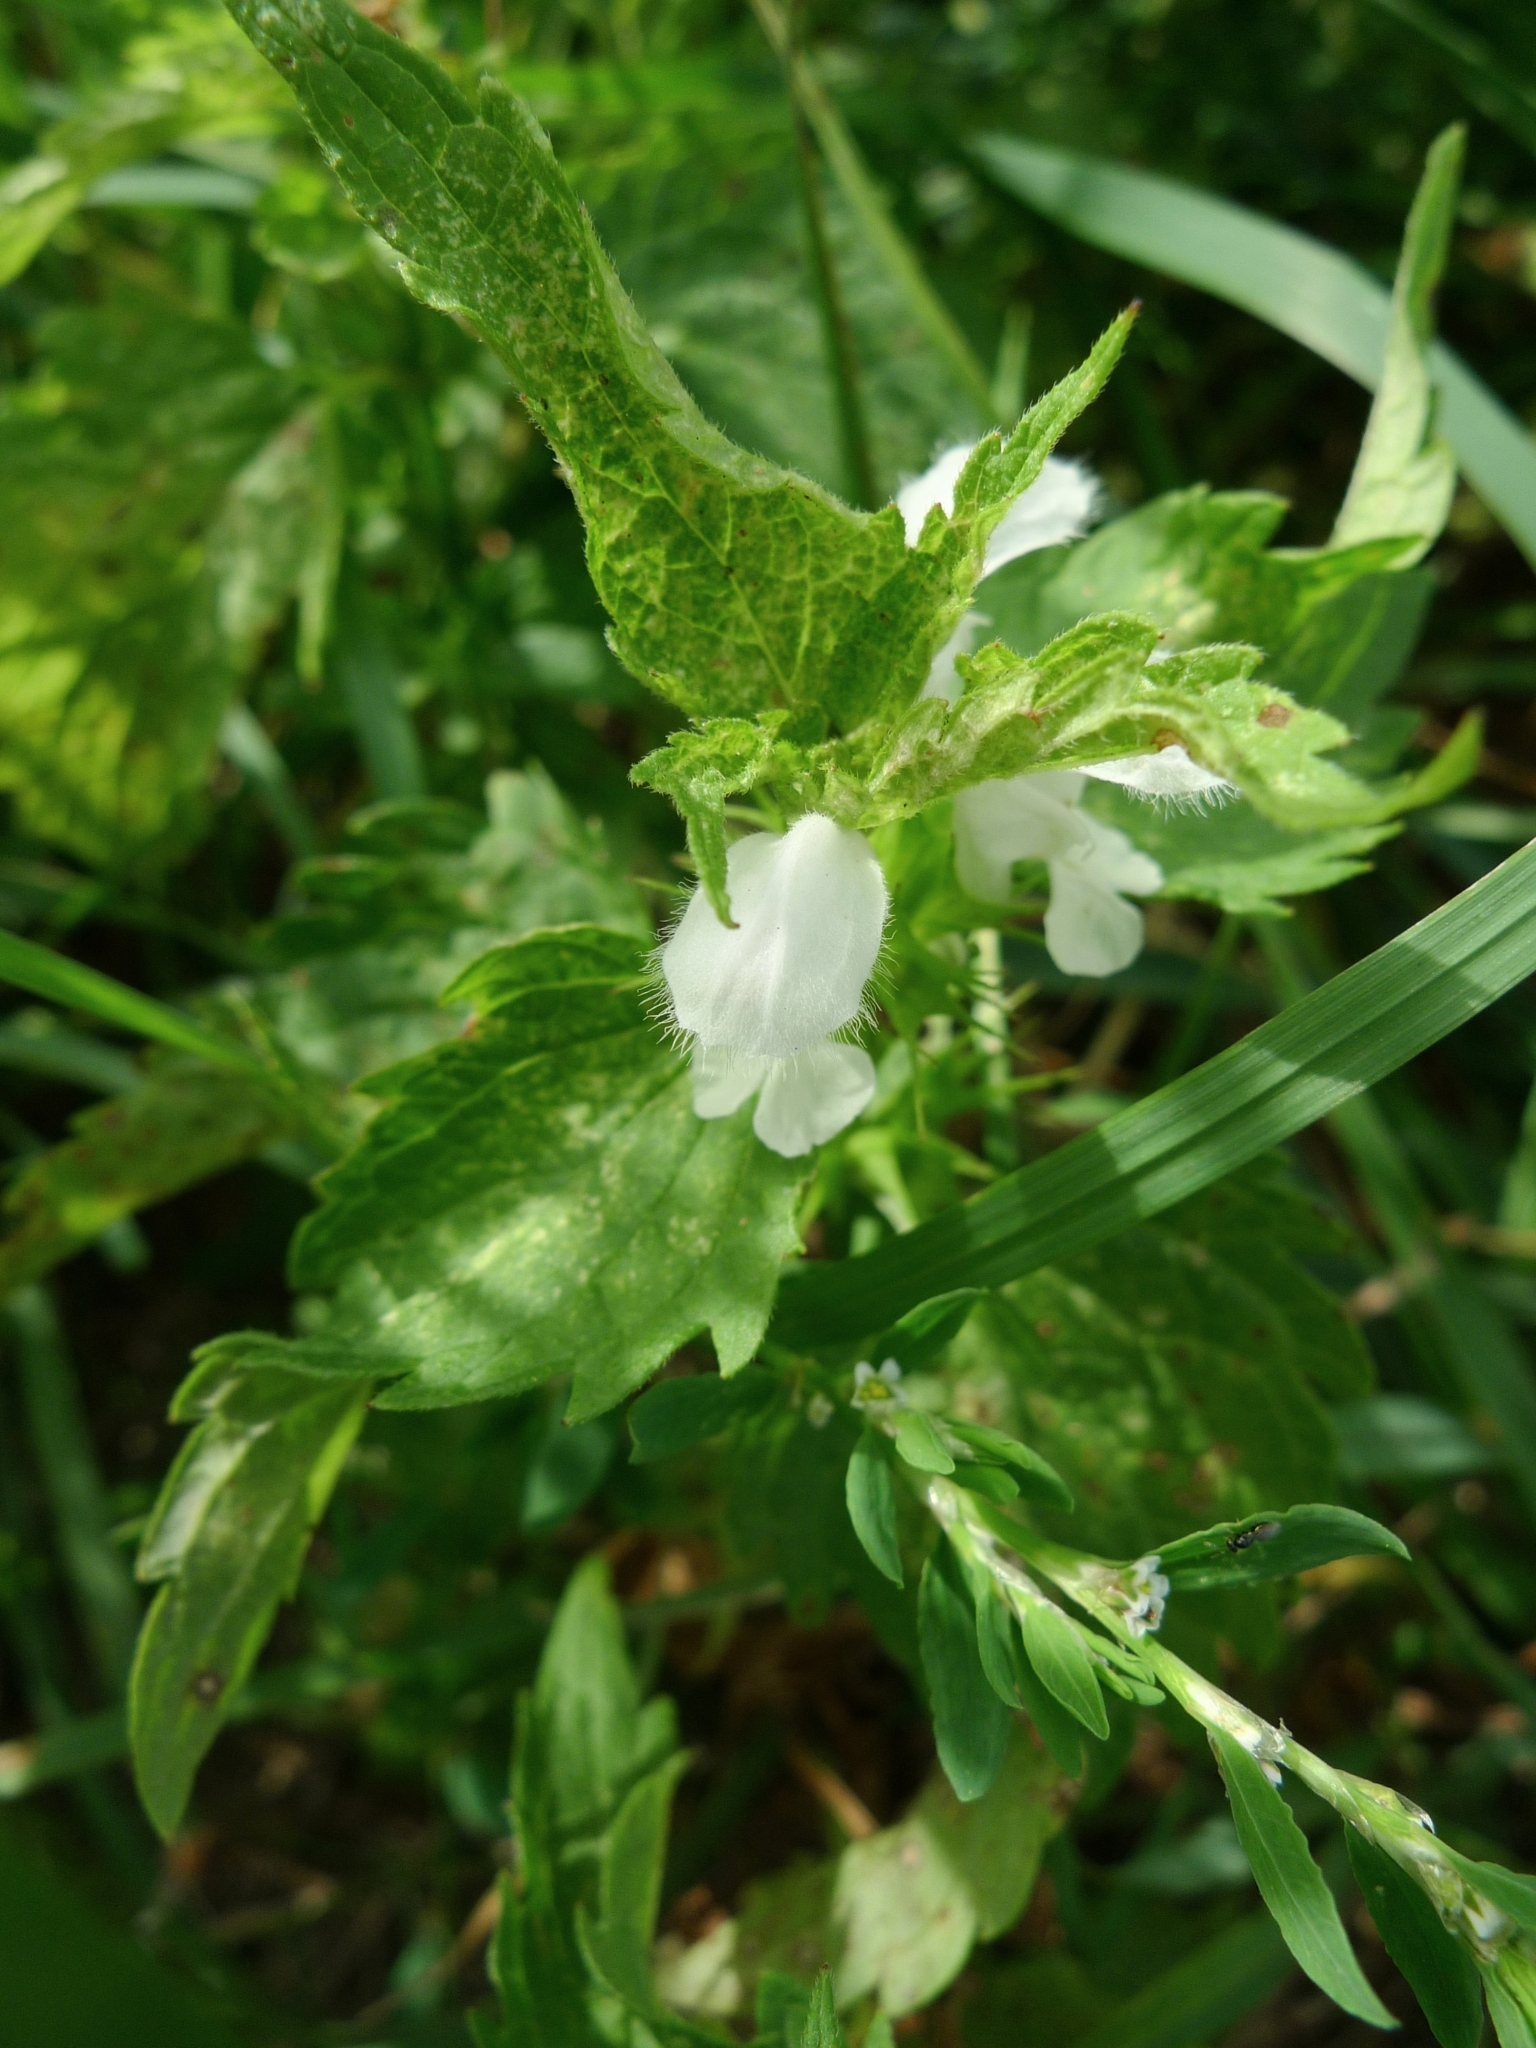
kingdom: Plantae
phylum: Tracheophyta
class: Magnoliopsida
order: Lamiales
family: Lamiaceae
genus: Lamium
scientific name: Lamium album
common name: White dead-nettle
